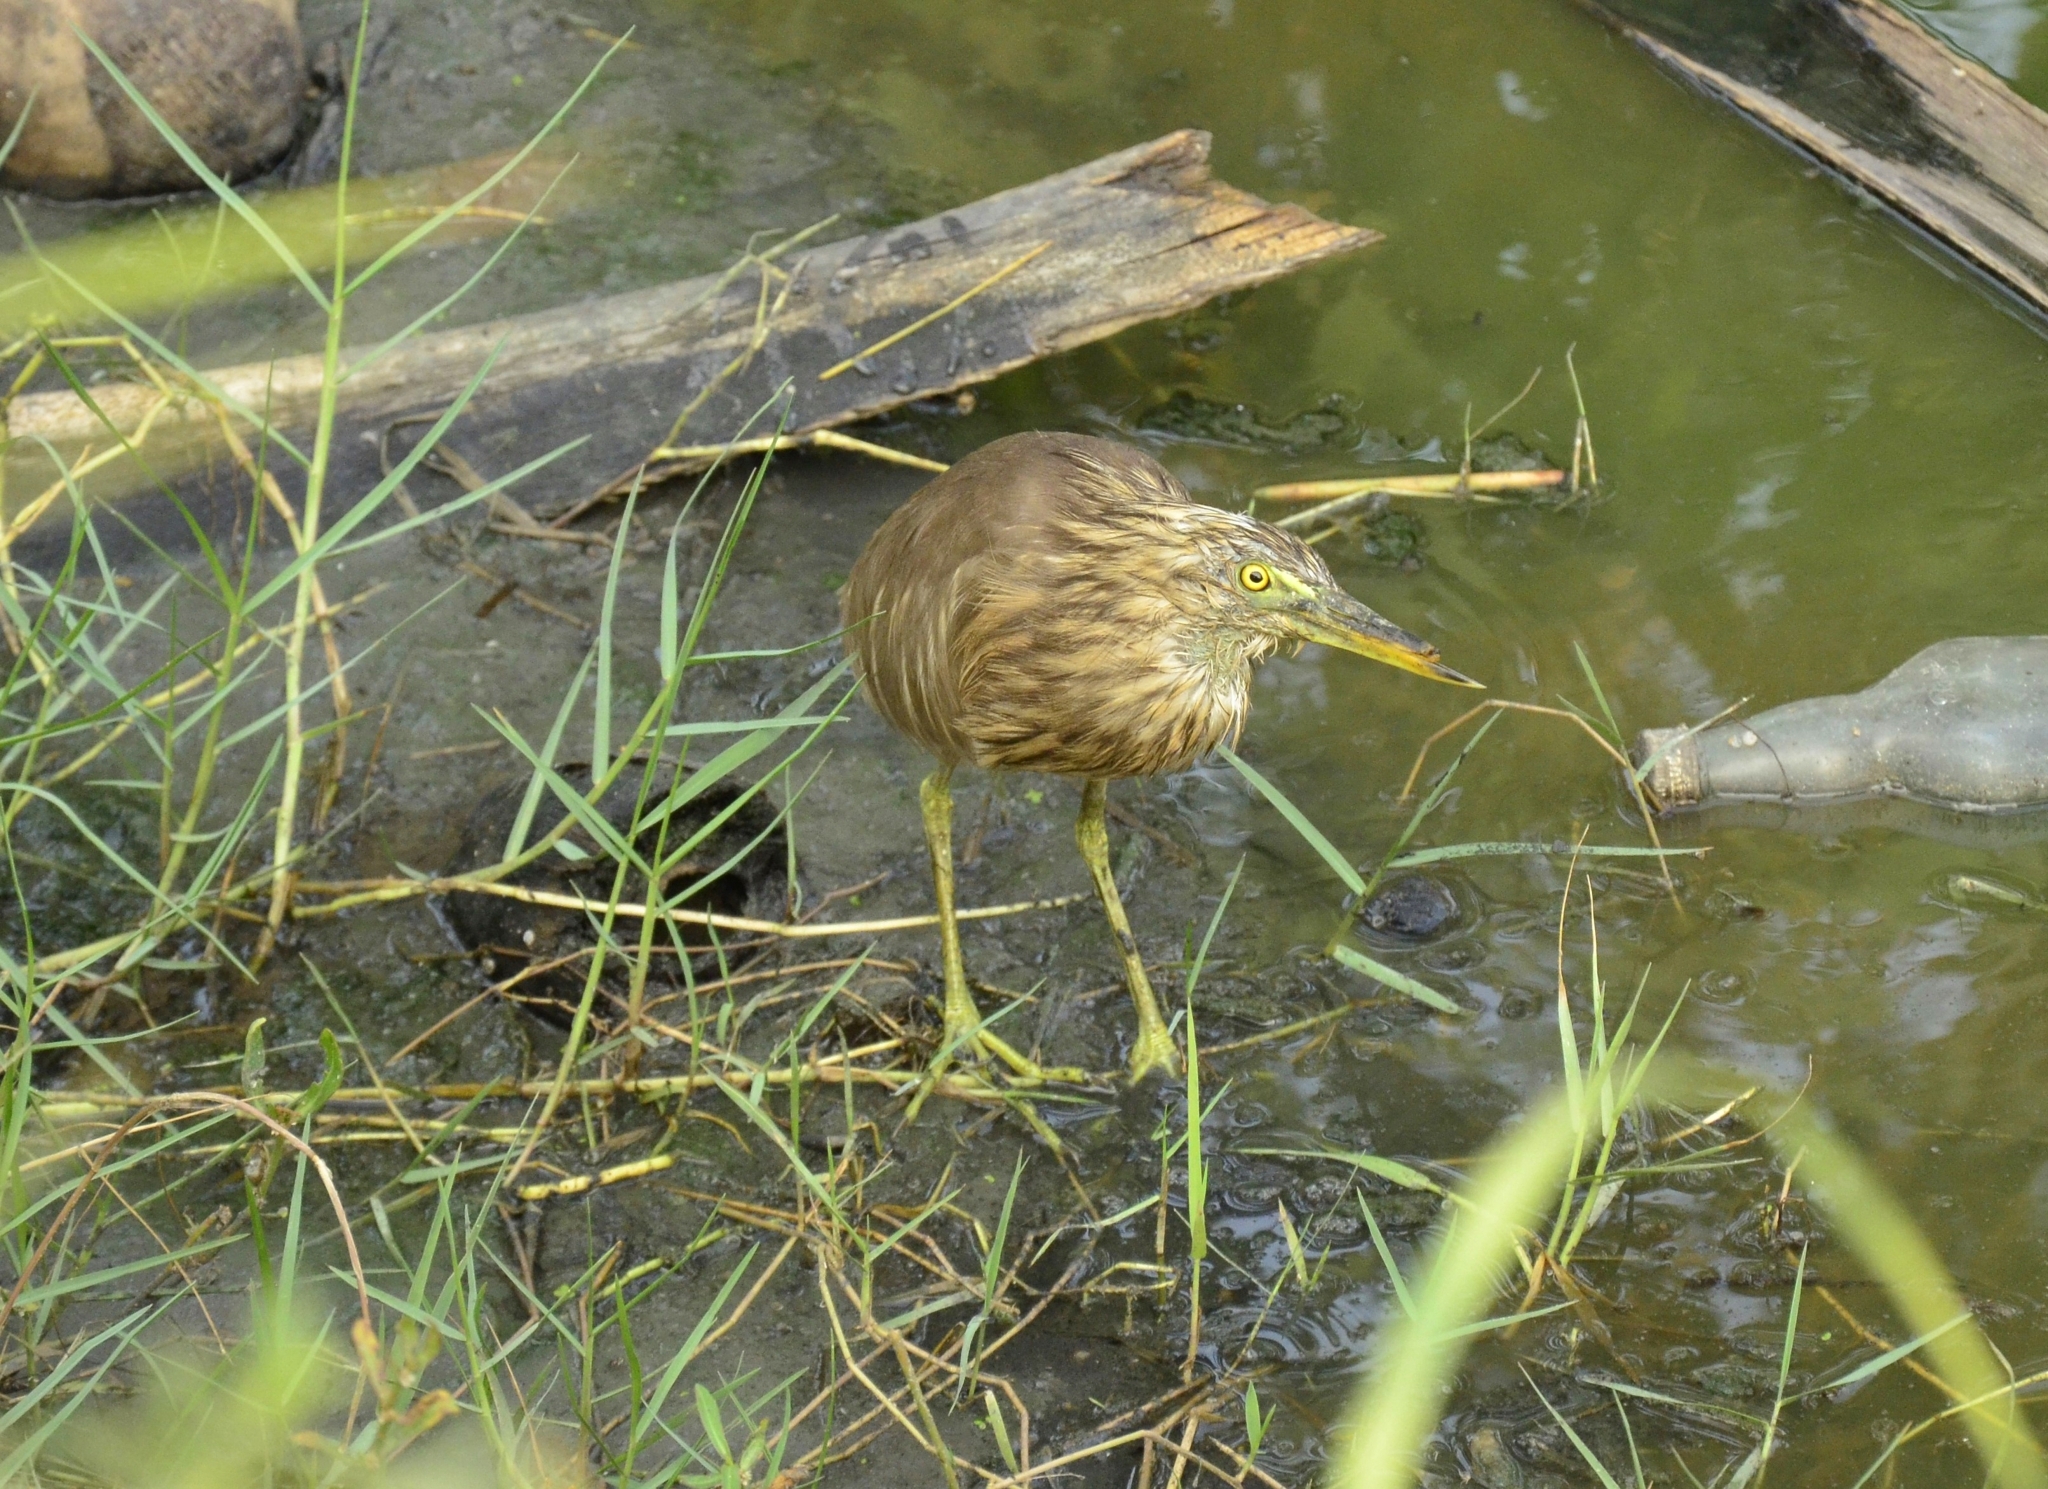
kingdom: Animalia
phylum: Chordata
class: Aves
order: Pelecaniformes
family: Ardeidae
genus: Ardeola
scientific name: Ardeola grayii
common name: Indian pond heron
